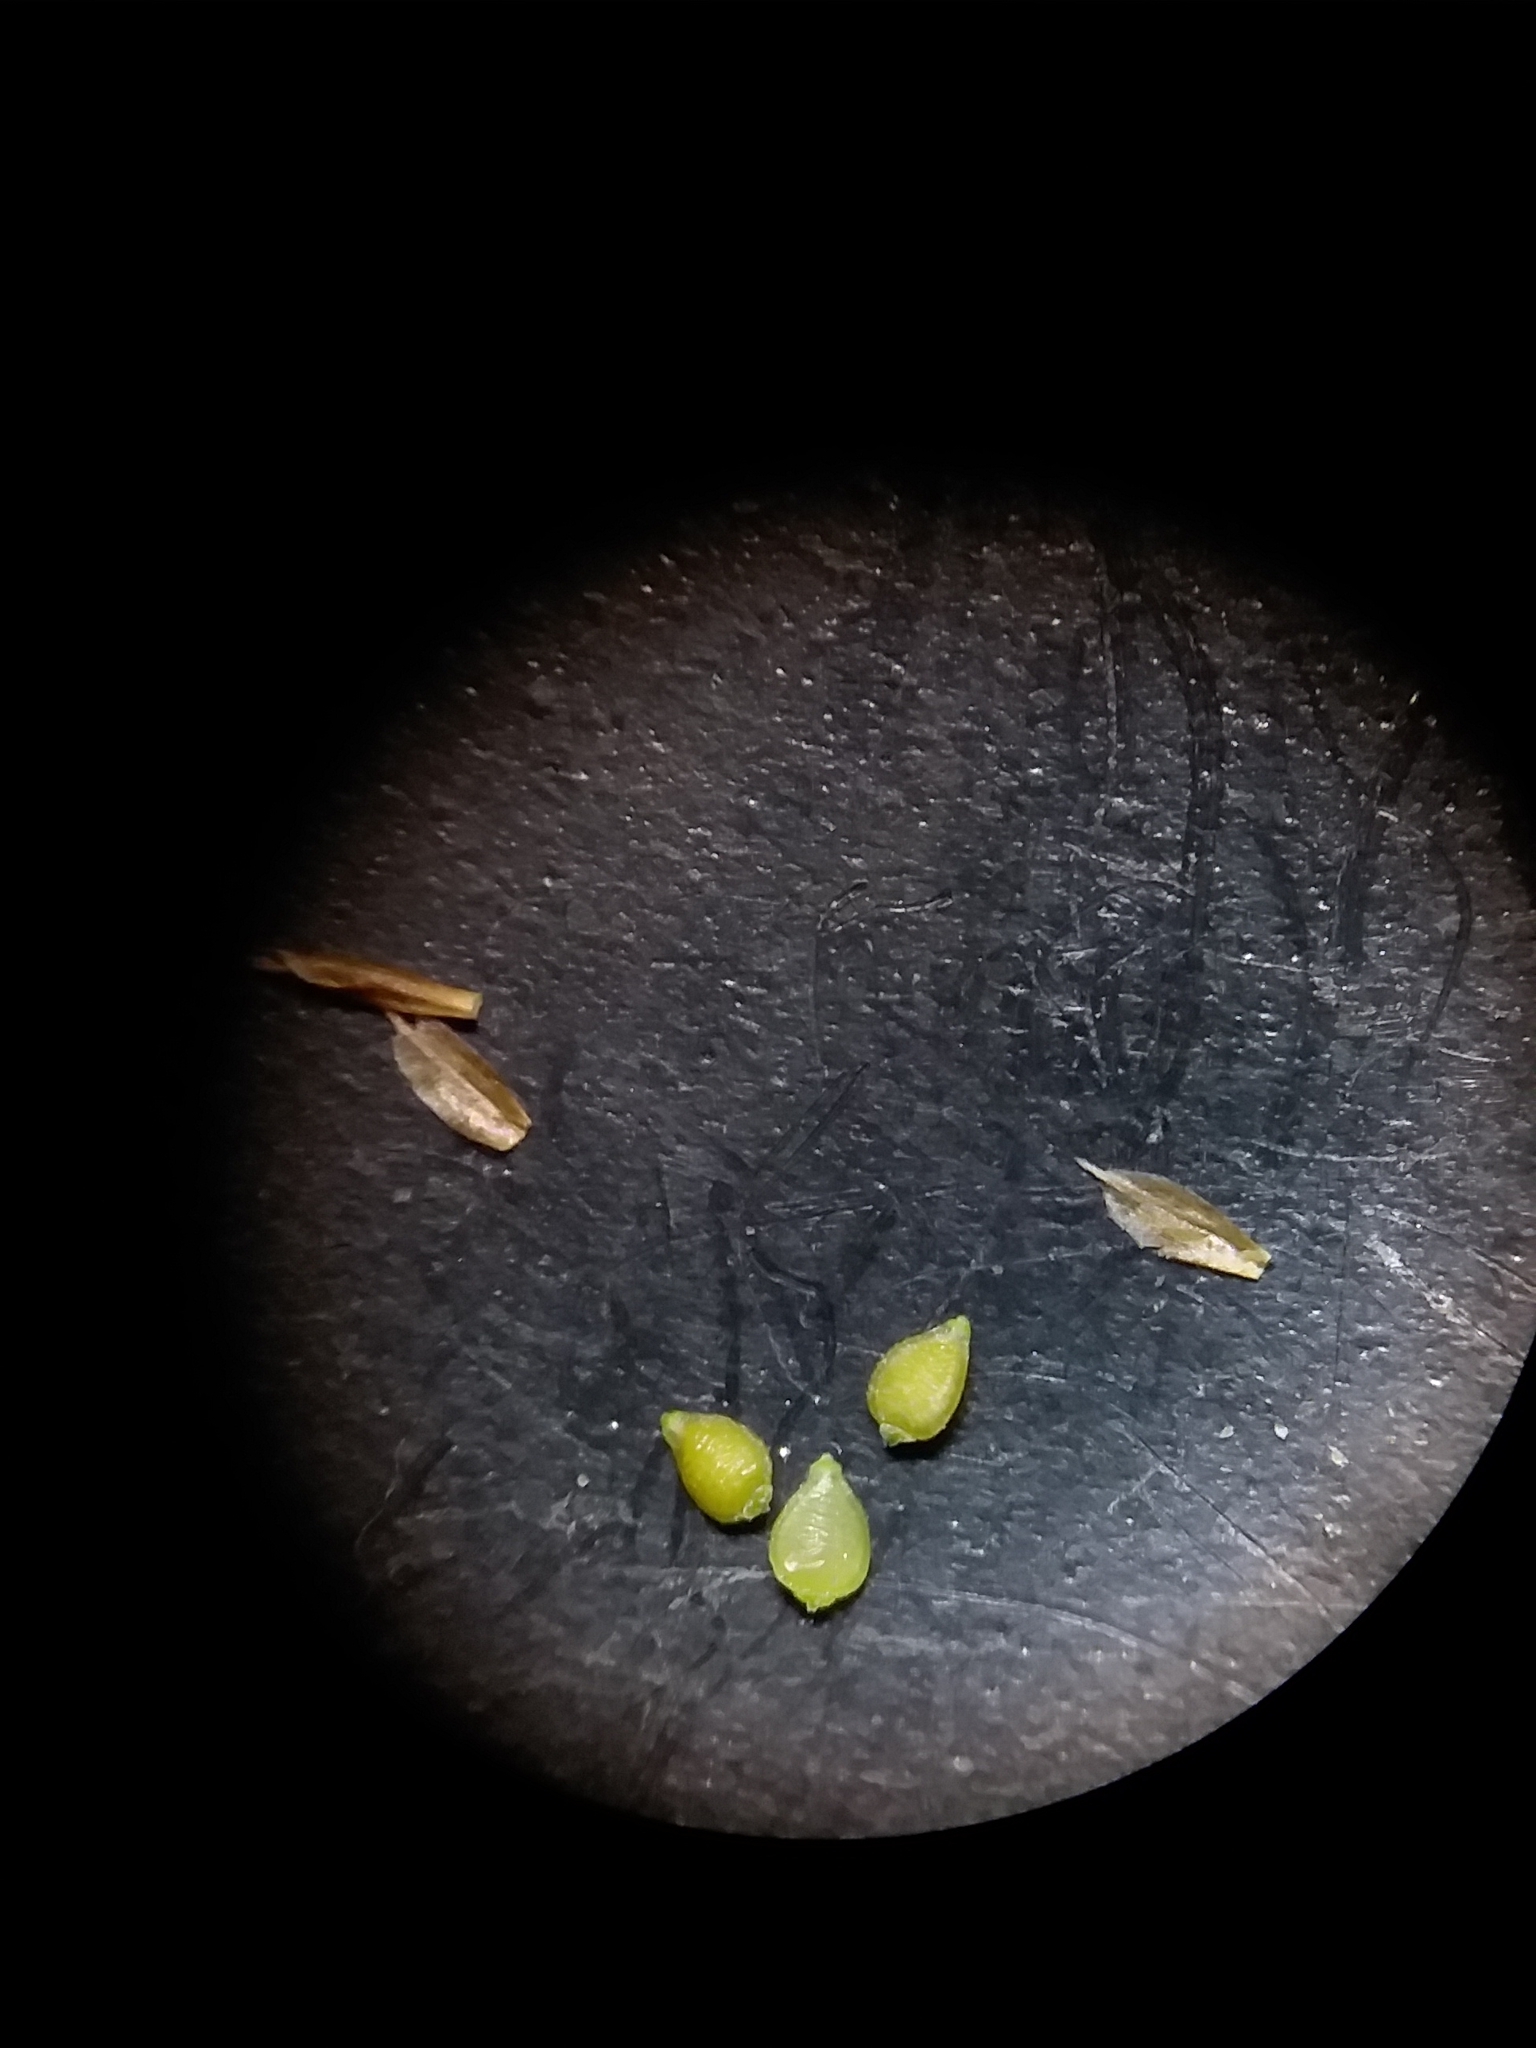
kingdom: Plantae
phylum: Tracheophyta
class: Liliopsida
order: Poales
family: Cyperaceae
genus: Rhynchospora
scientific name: Rhynchospora pusilla
